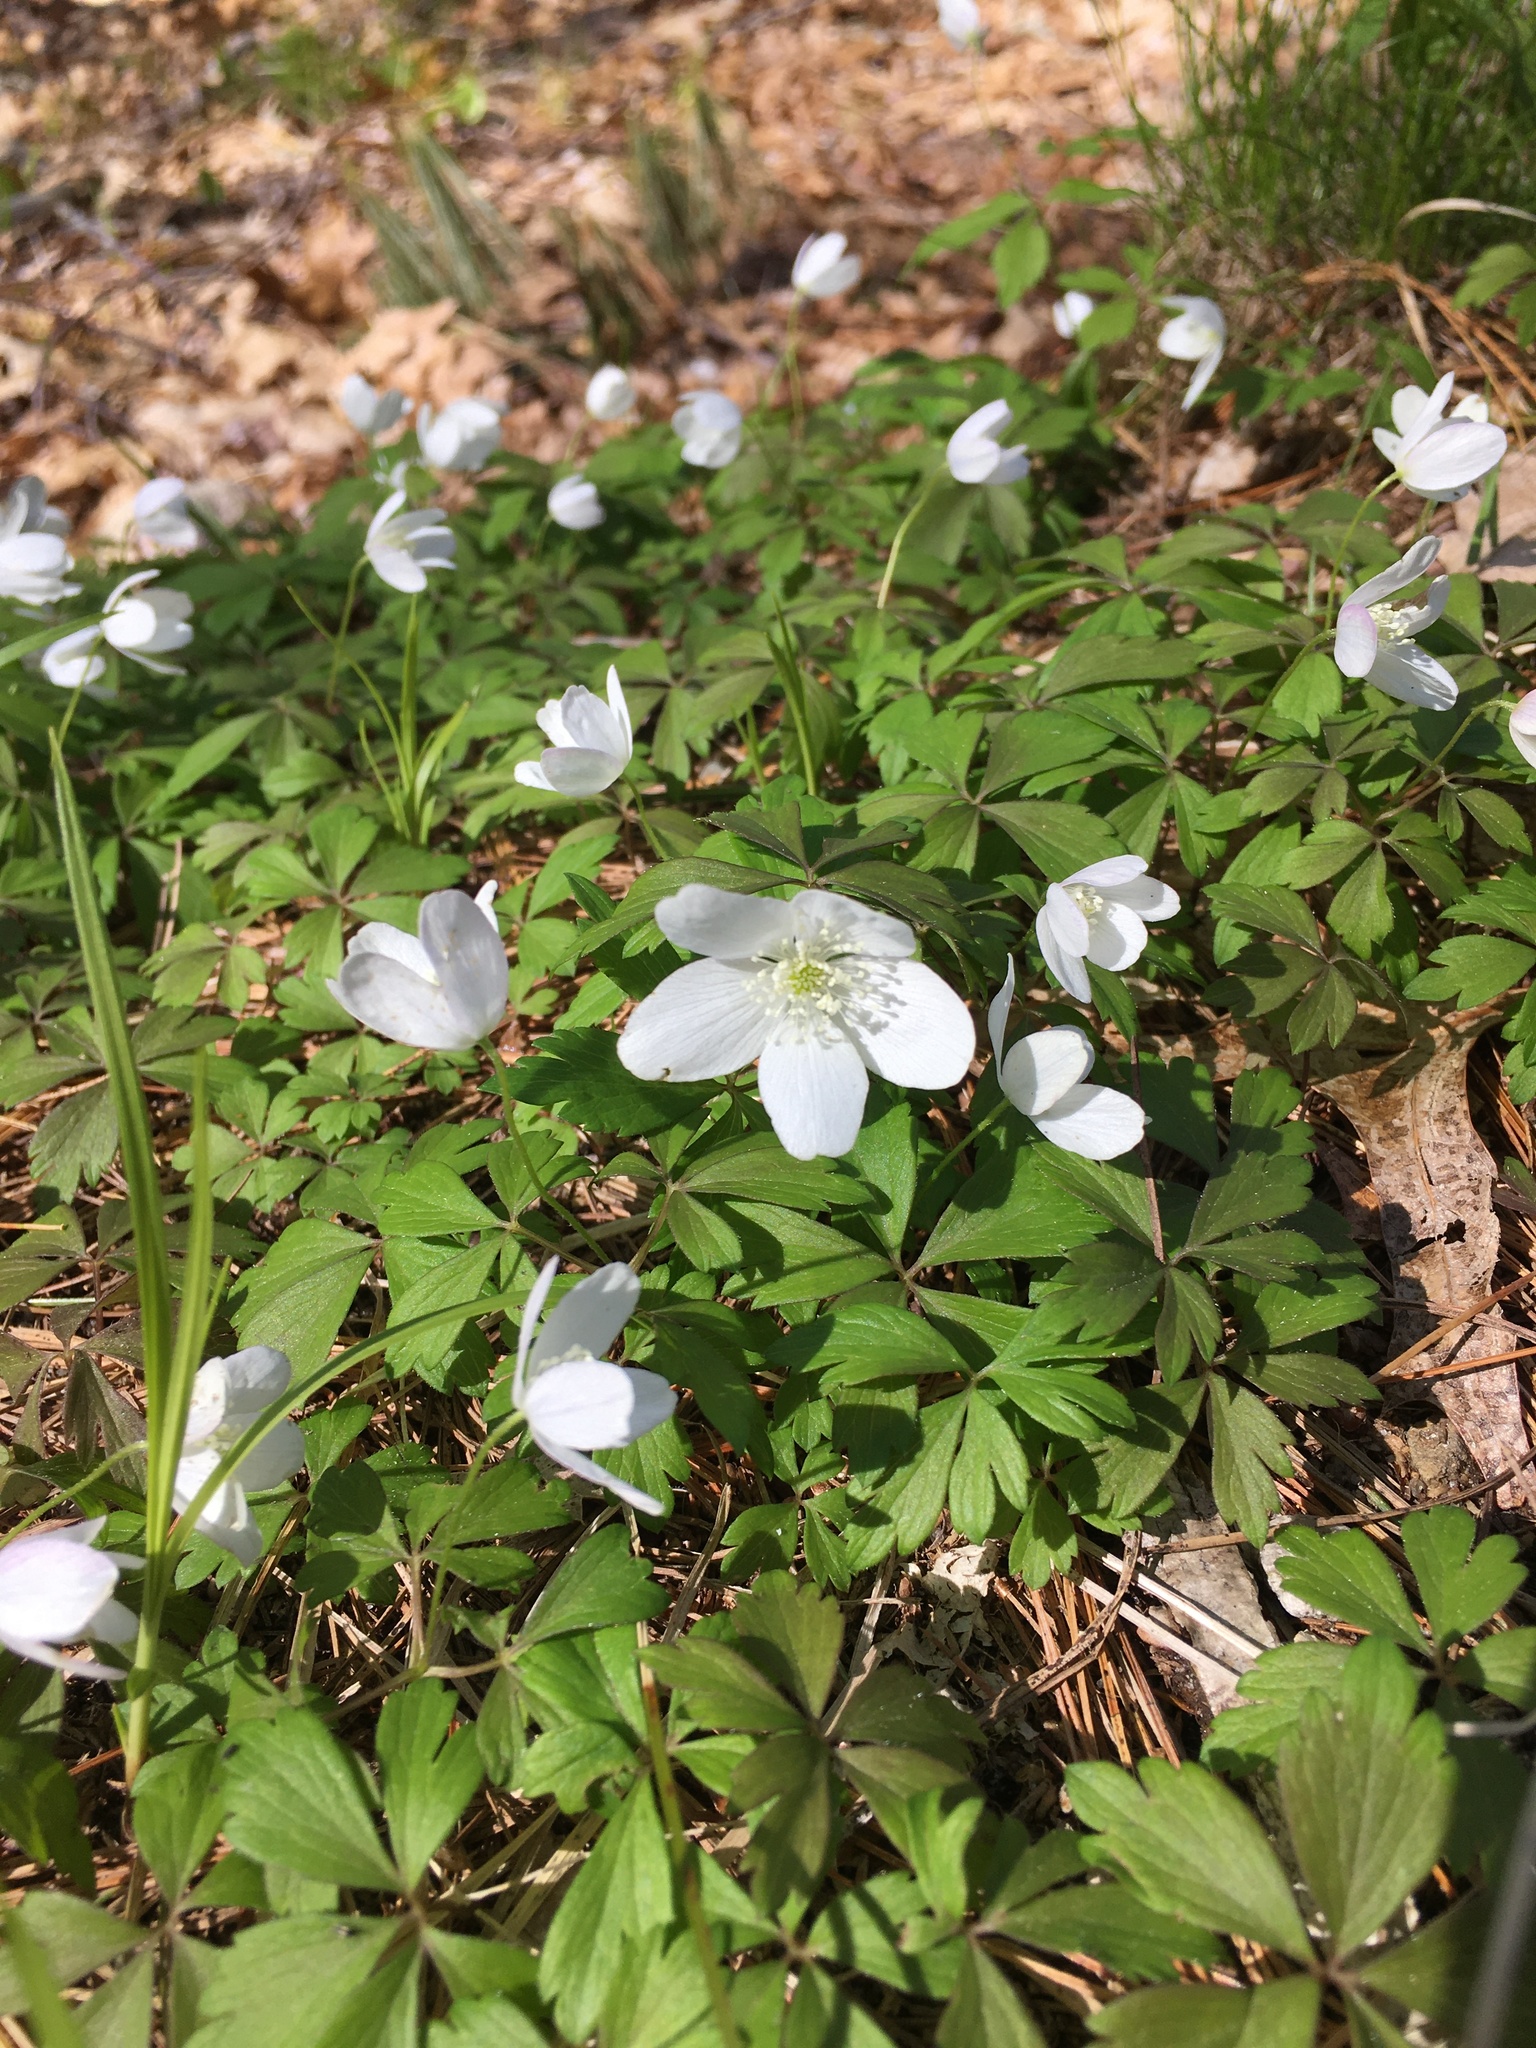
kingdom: Plantae
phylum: Tracheophyta
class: Magnoliopsida
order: Ranunculales
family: Ranunculaceae
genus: Anemone
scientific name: Anemone quinquefolia
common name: Wood anemone
